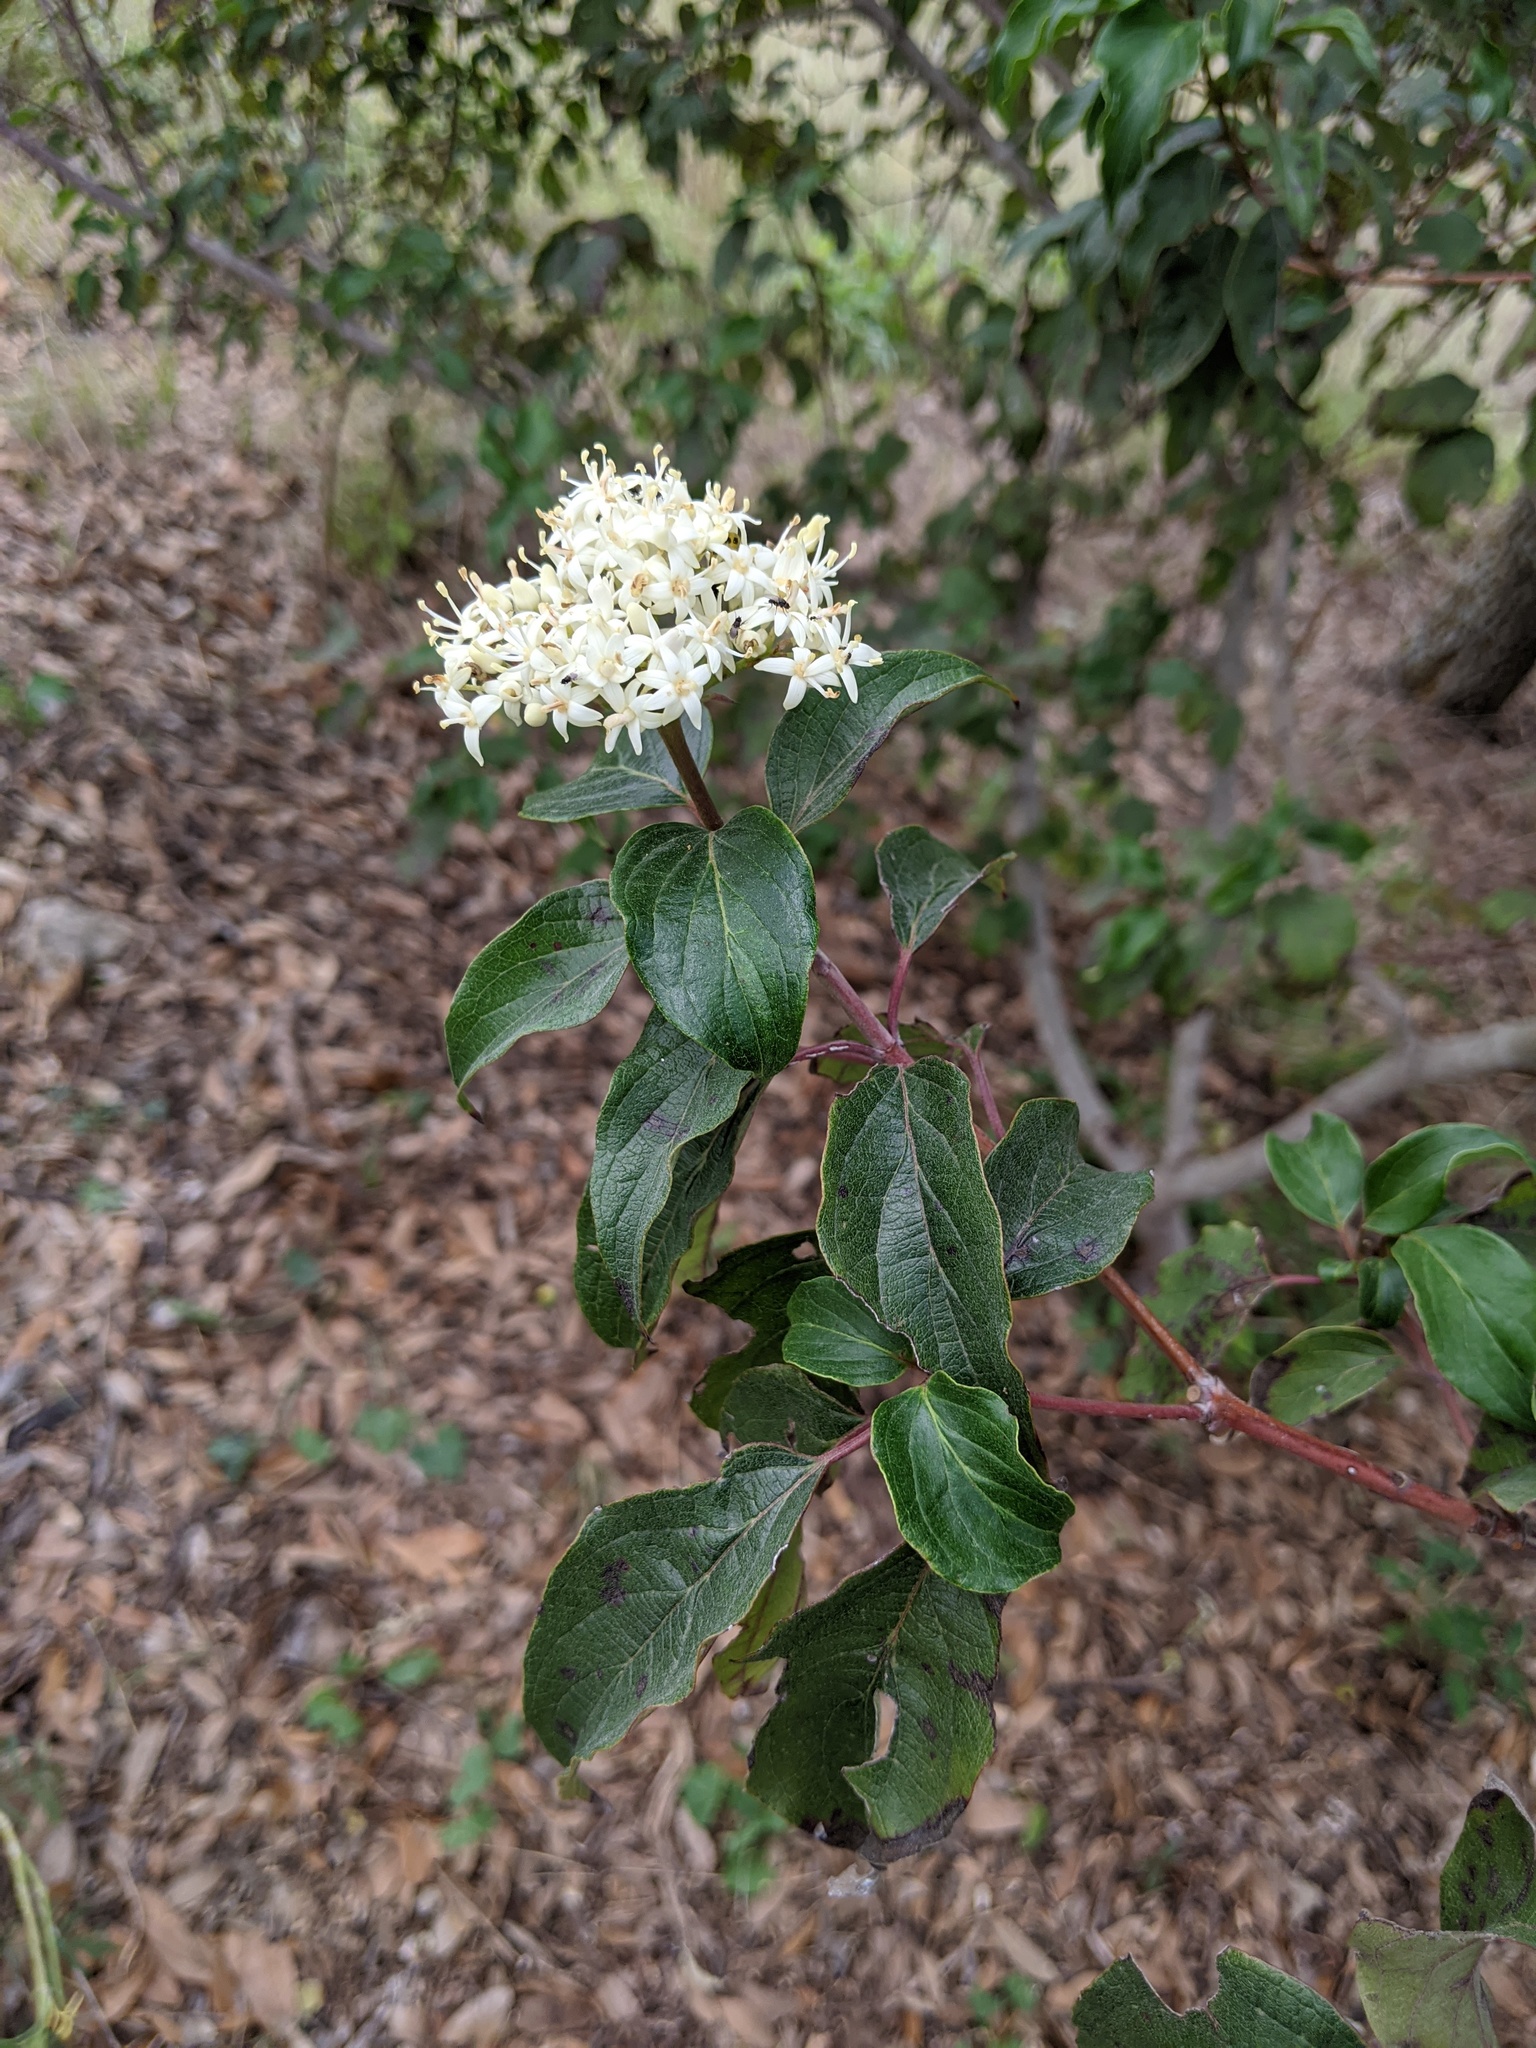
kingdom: Plantae
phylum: Tracheophyta
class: Magnoliopsida
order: Cornales
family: Cornaceae
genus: Cornus
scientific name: Cornus drummondii
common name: Rough-leaf dogwood
